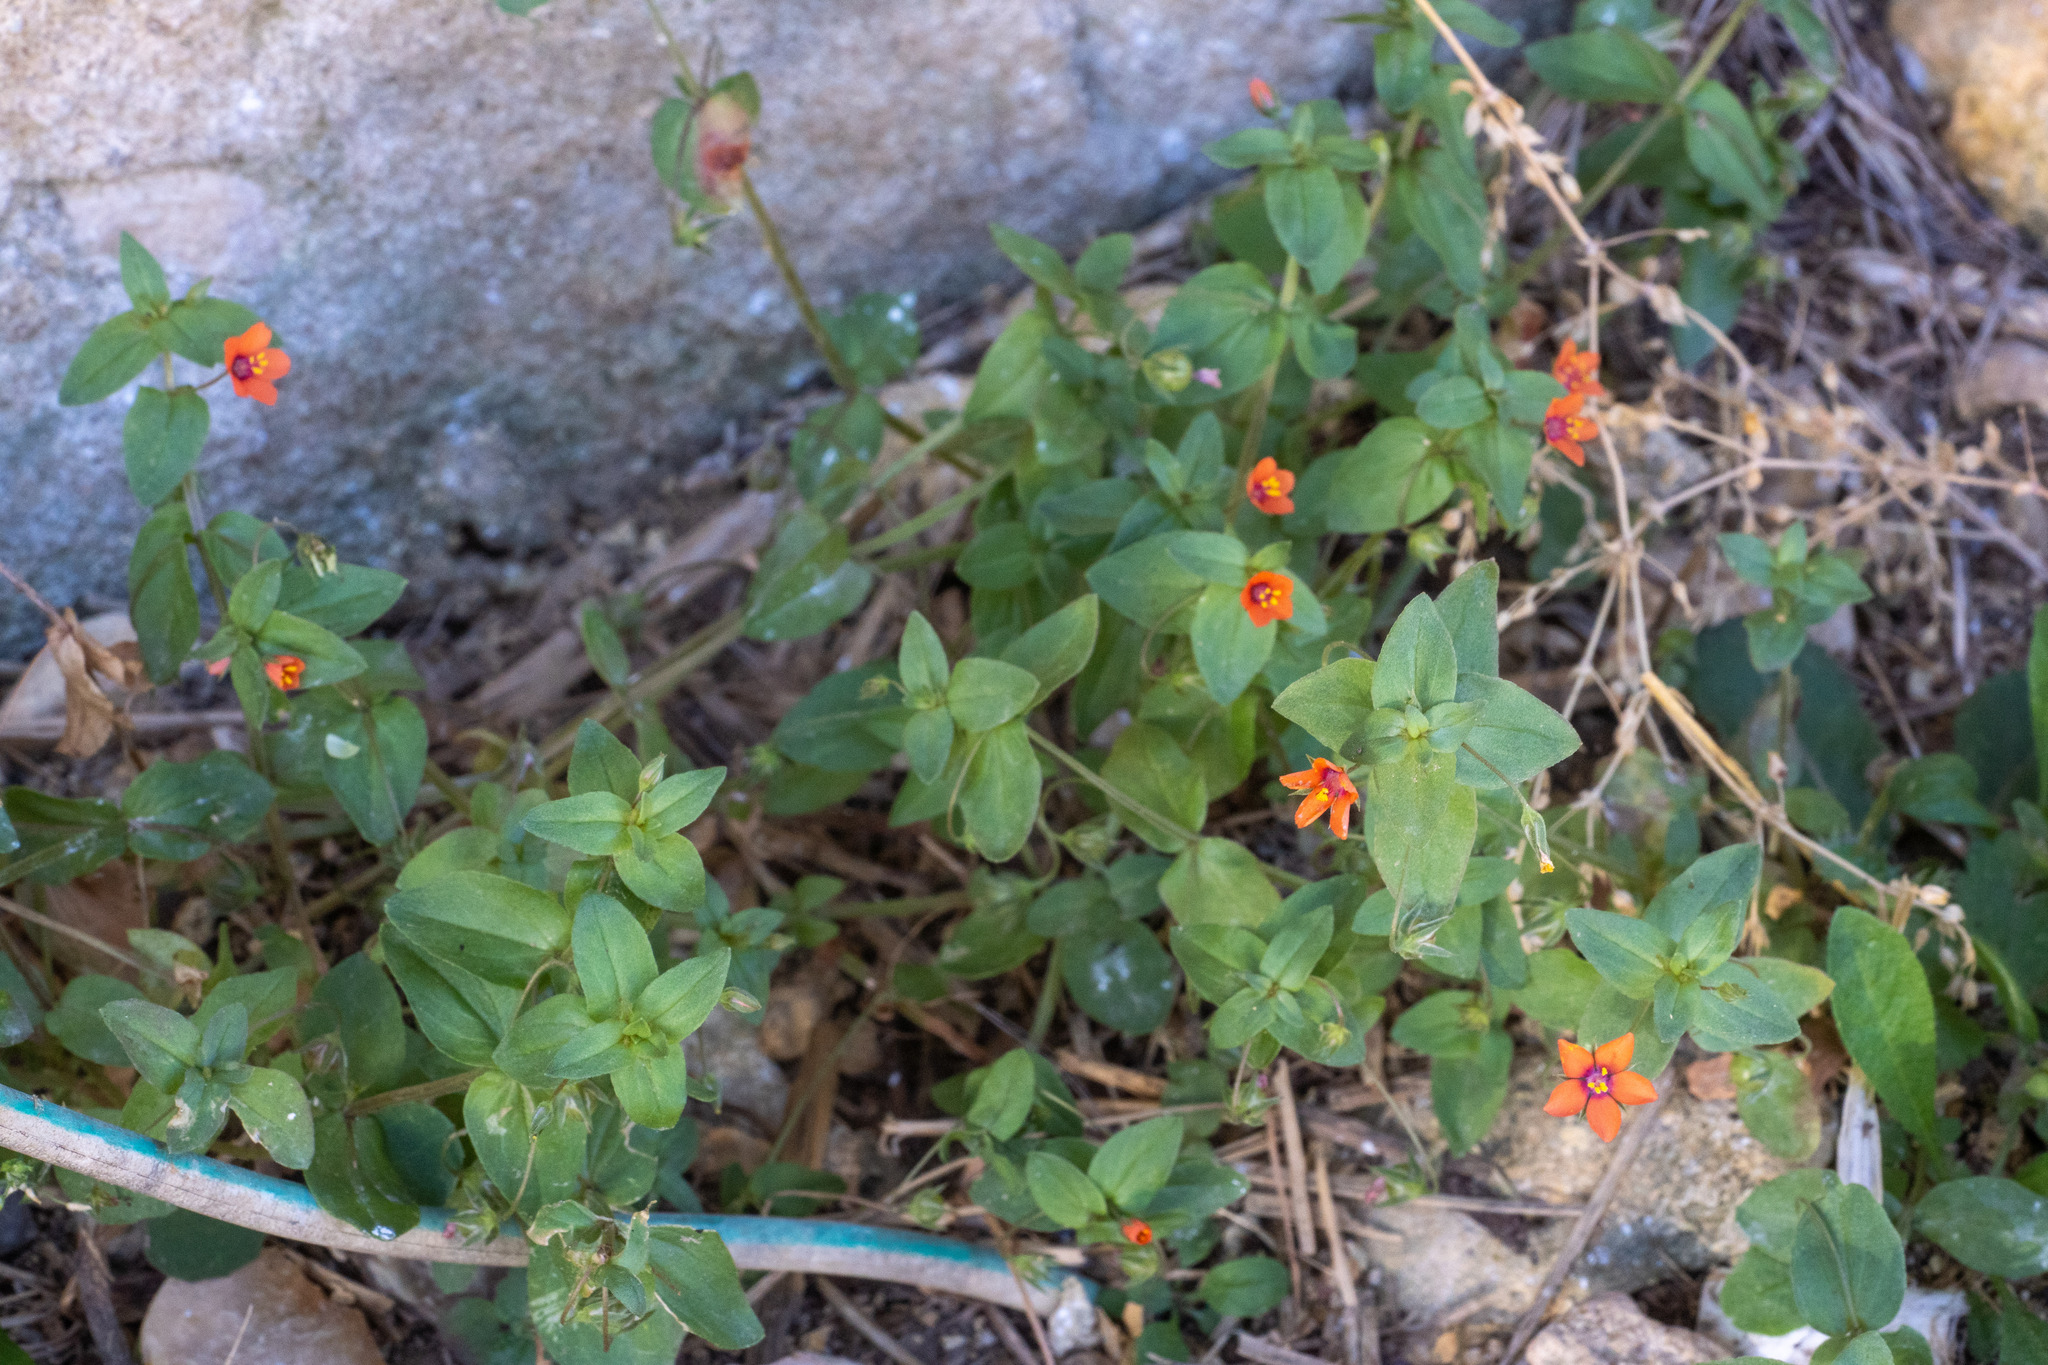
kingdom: Plantae
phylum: Tracheophyta
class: Magnoliopsida
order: Ericales
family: Primulaceae
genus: Lysimachia
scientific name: Lysimachia arvensis
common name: Scarlet pimpernel
